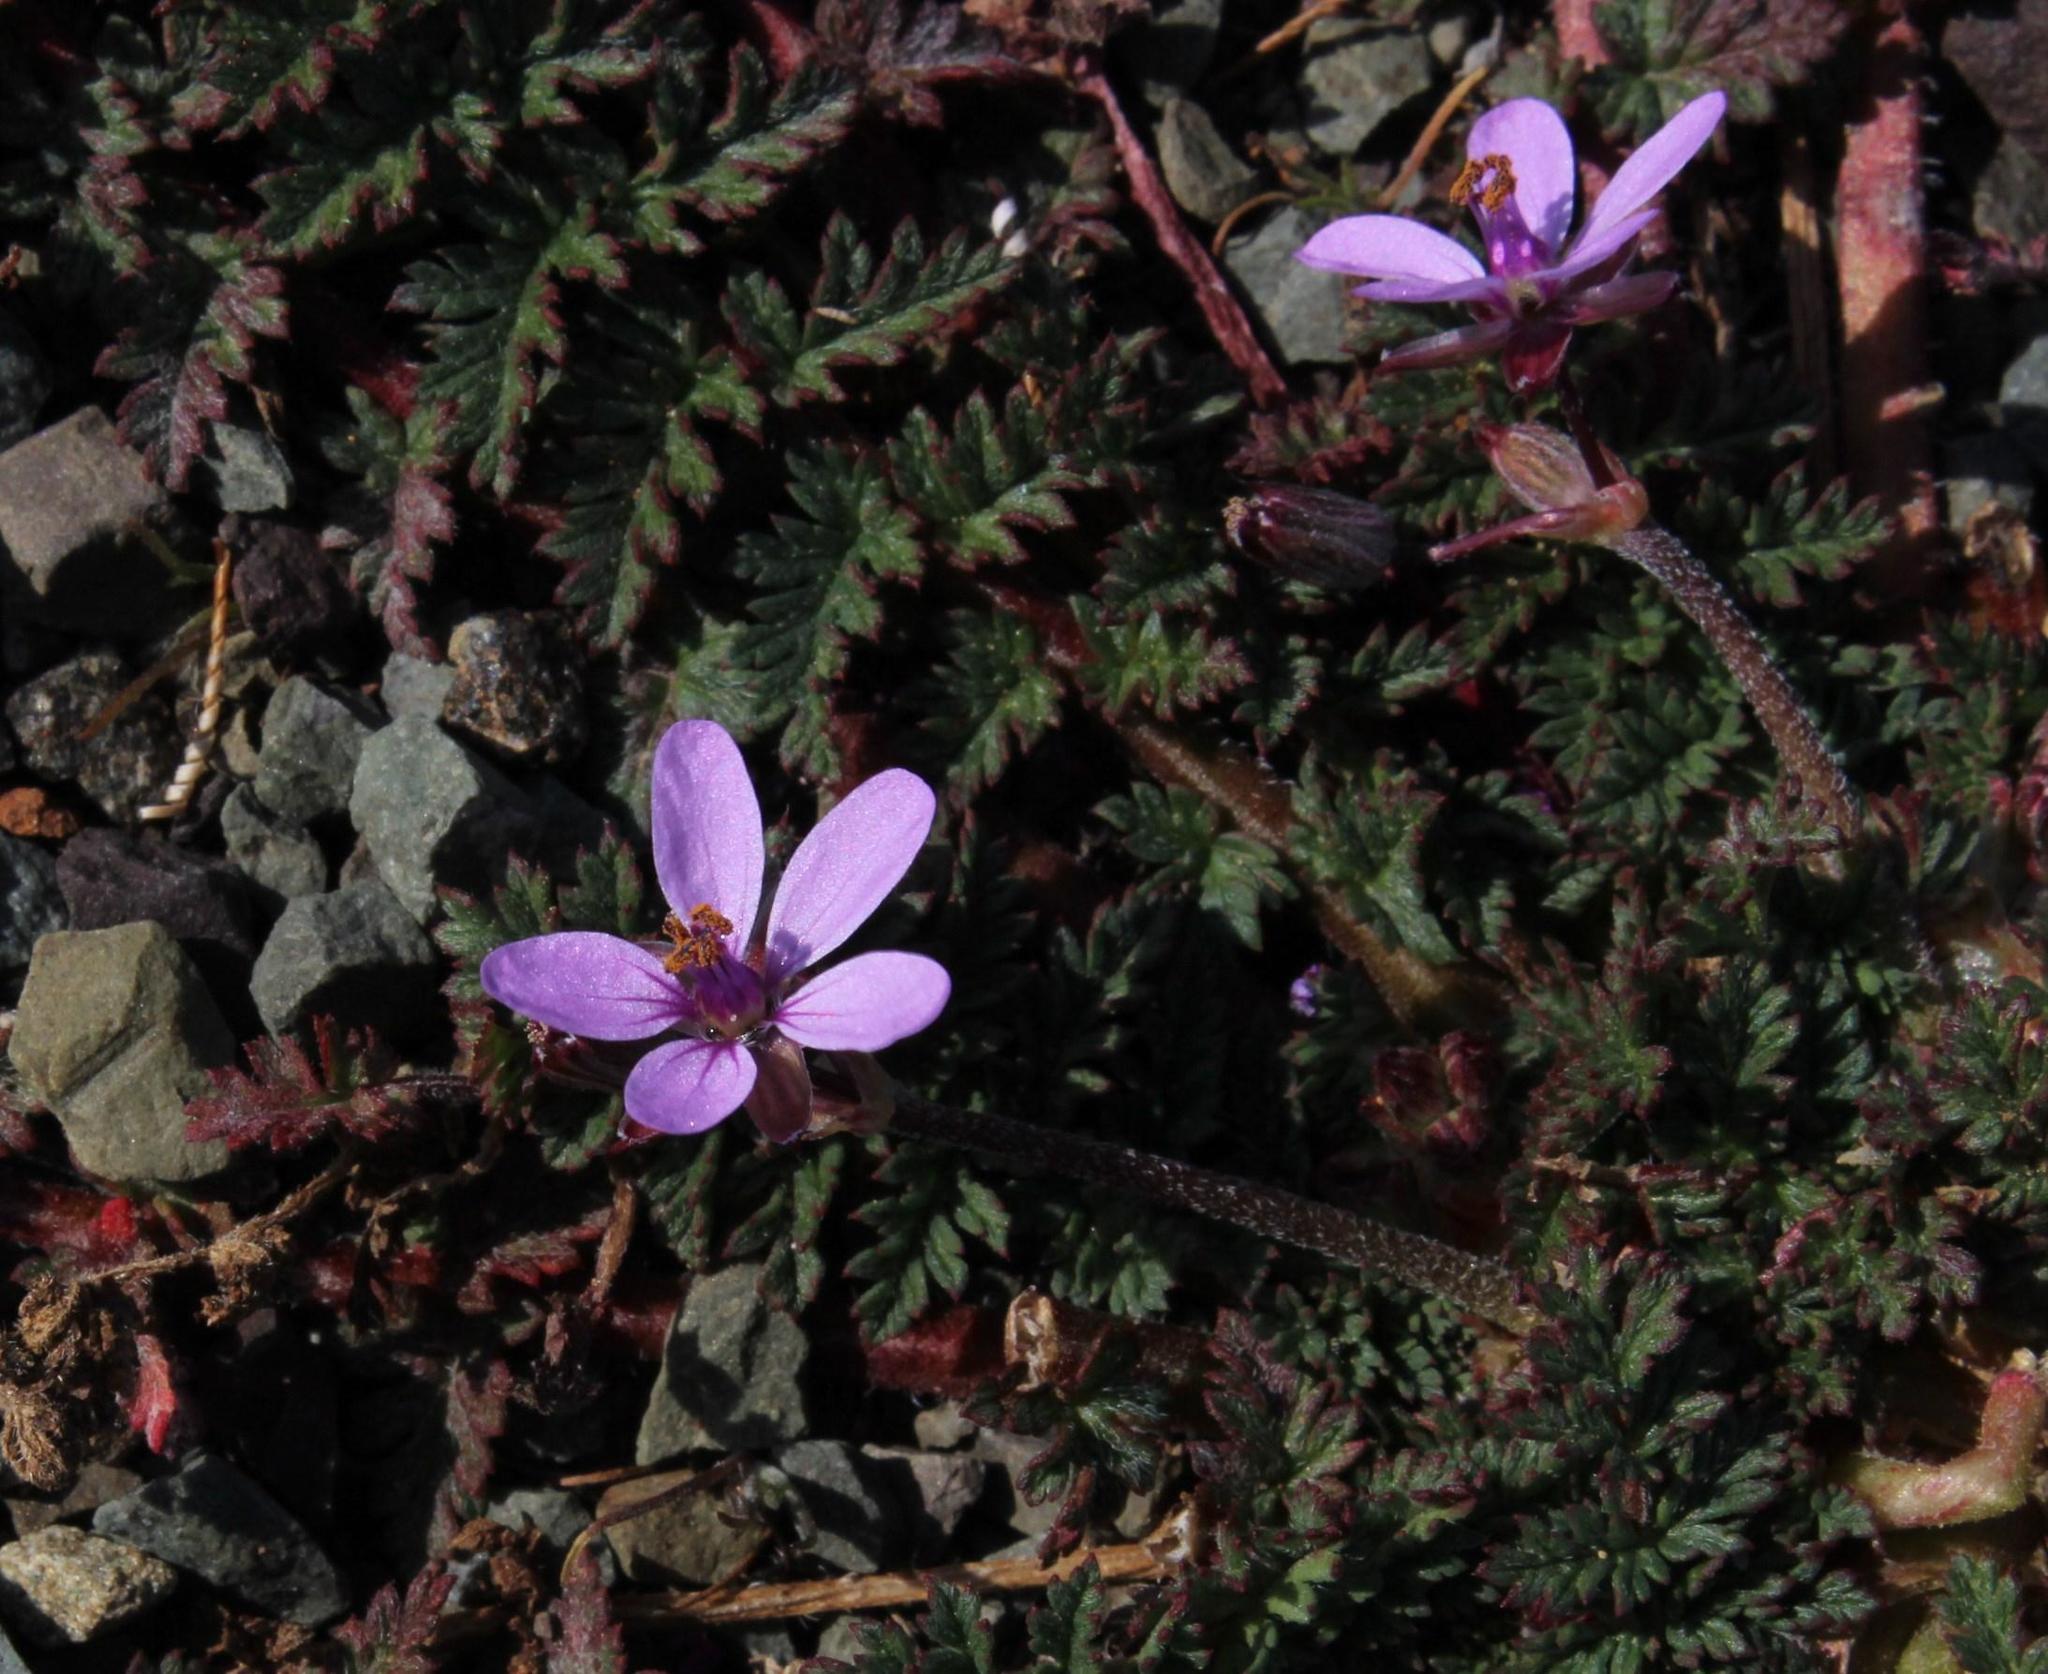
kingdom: Plantae
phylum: Tracheophyta
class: Magnoliopsida
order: Geraniales
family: Geraniaceae
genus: Erodium
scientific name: Erodium cicutarium
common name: Common stork's-bill
